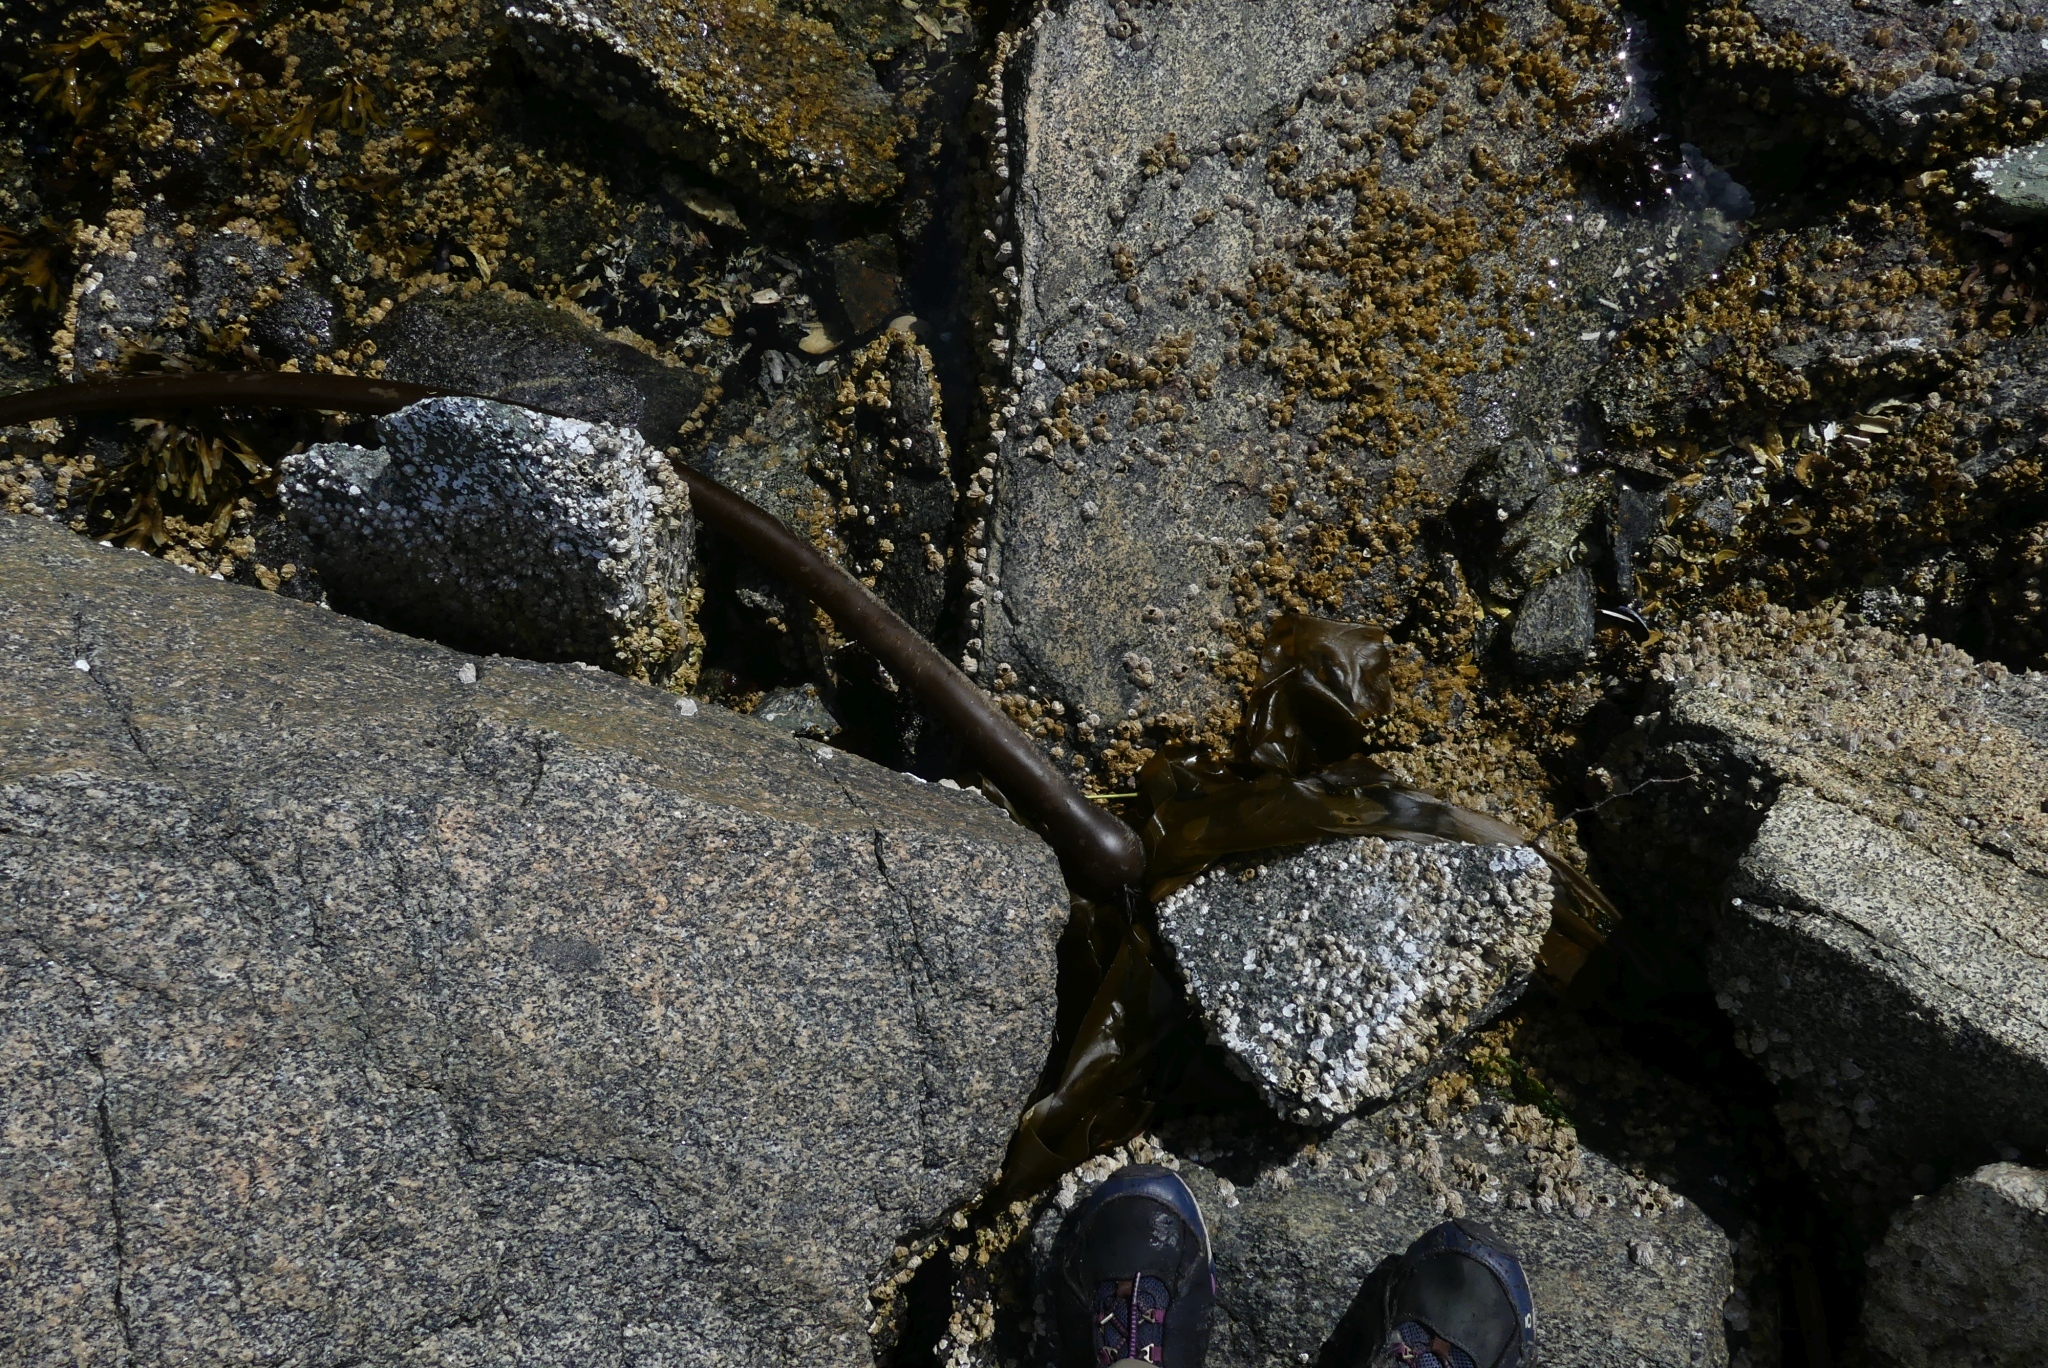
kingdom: Chromista
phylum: Ochrophyta
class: Phaeophyceae
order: Laminariales
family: Laminariaceae
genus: Nereocystis
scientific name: Nereocystis luetkeana
